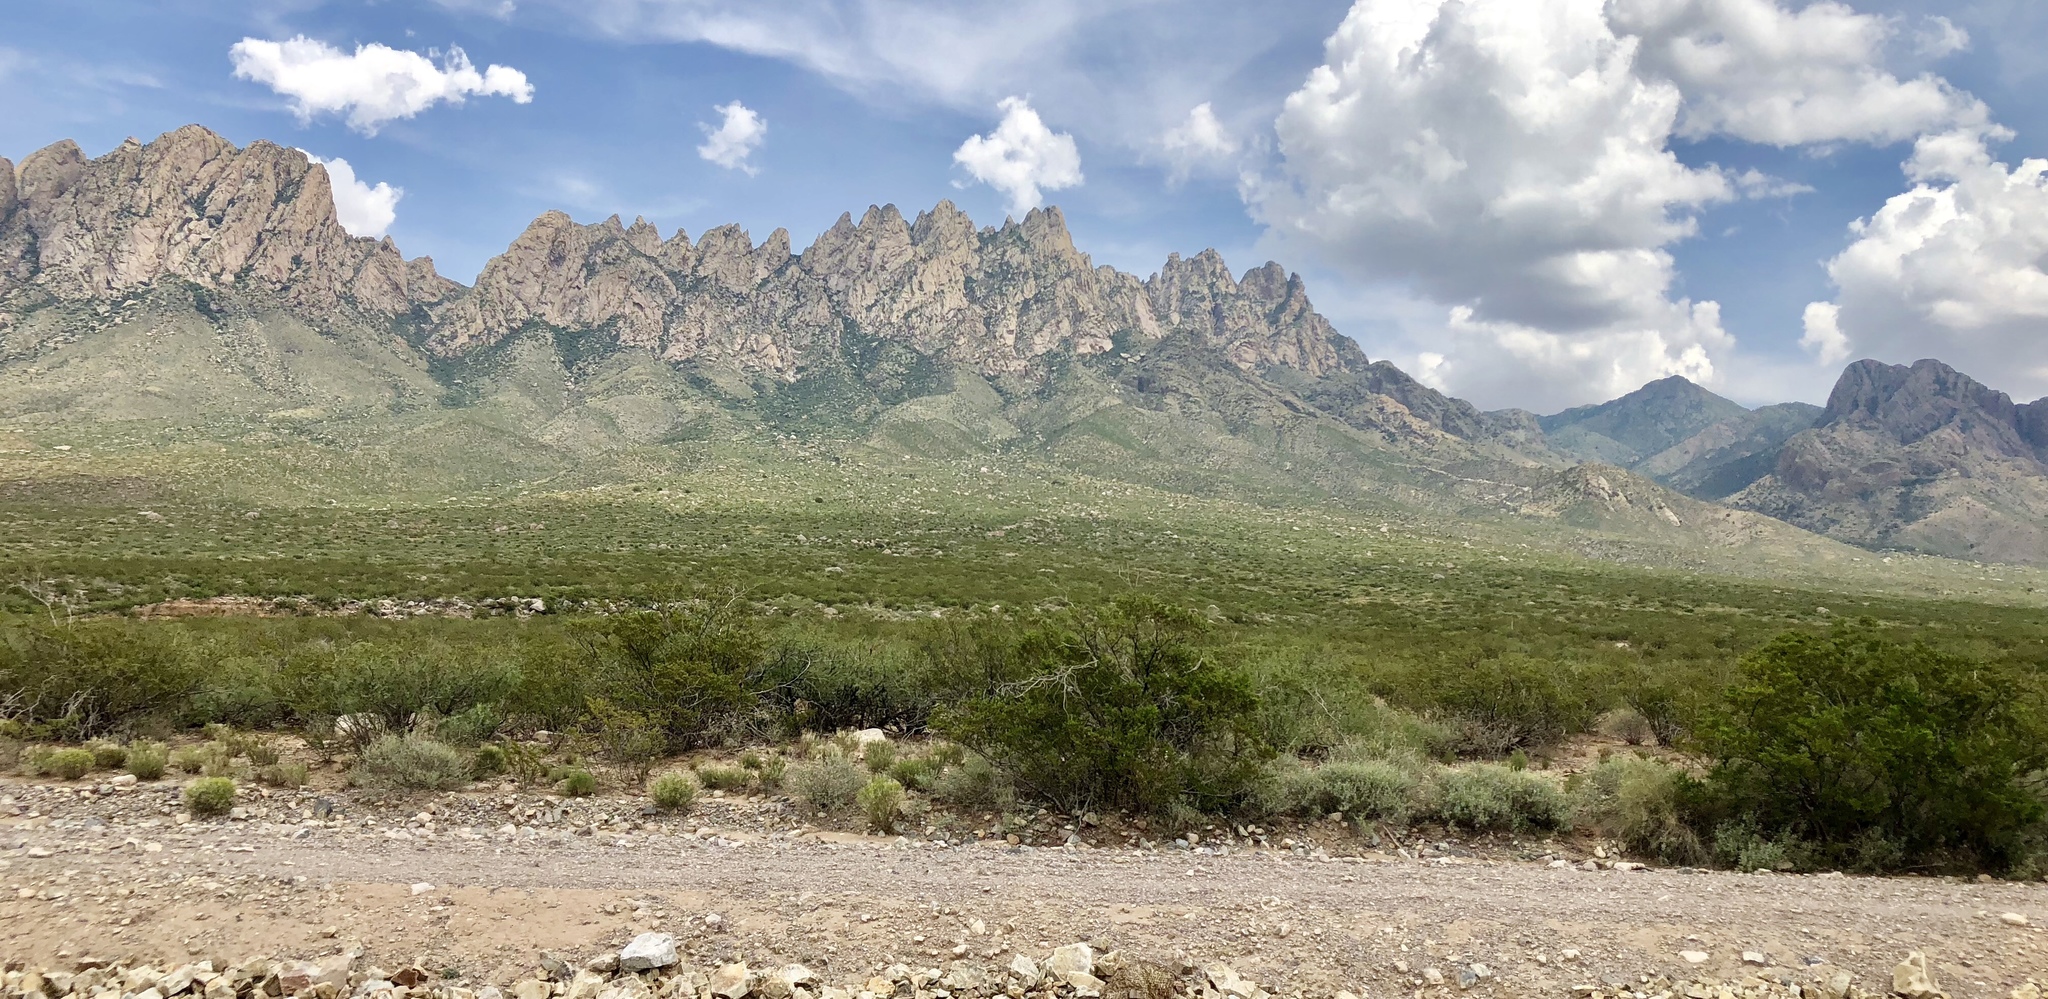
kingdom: Plantae
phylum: Tracheophyta
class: Magnoliopsida
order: Zygophyllales
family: Zygophyllaceae
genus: Larrea
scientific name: Larrea tridentata
